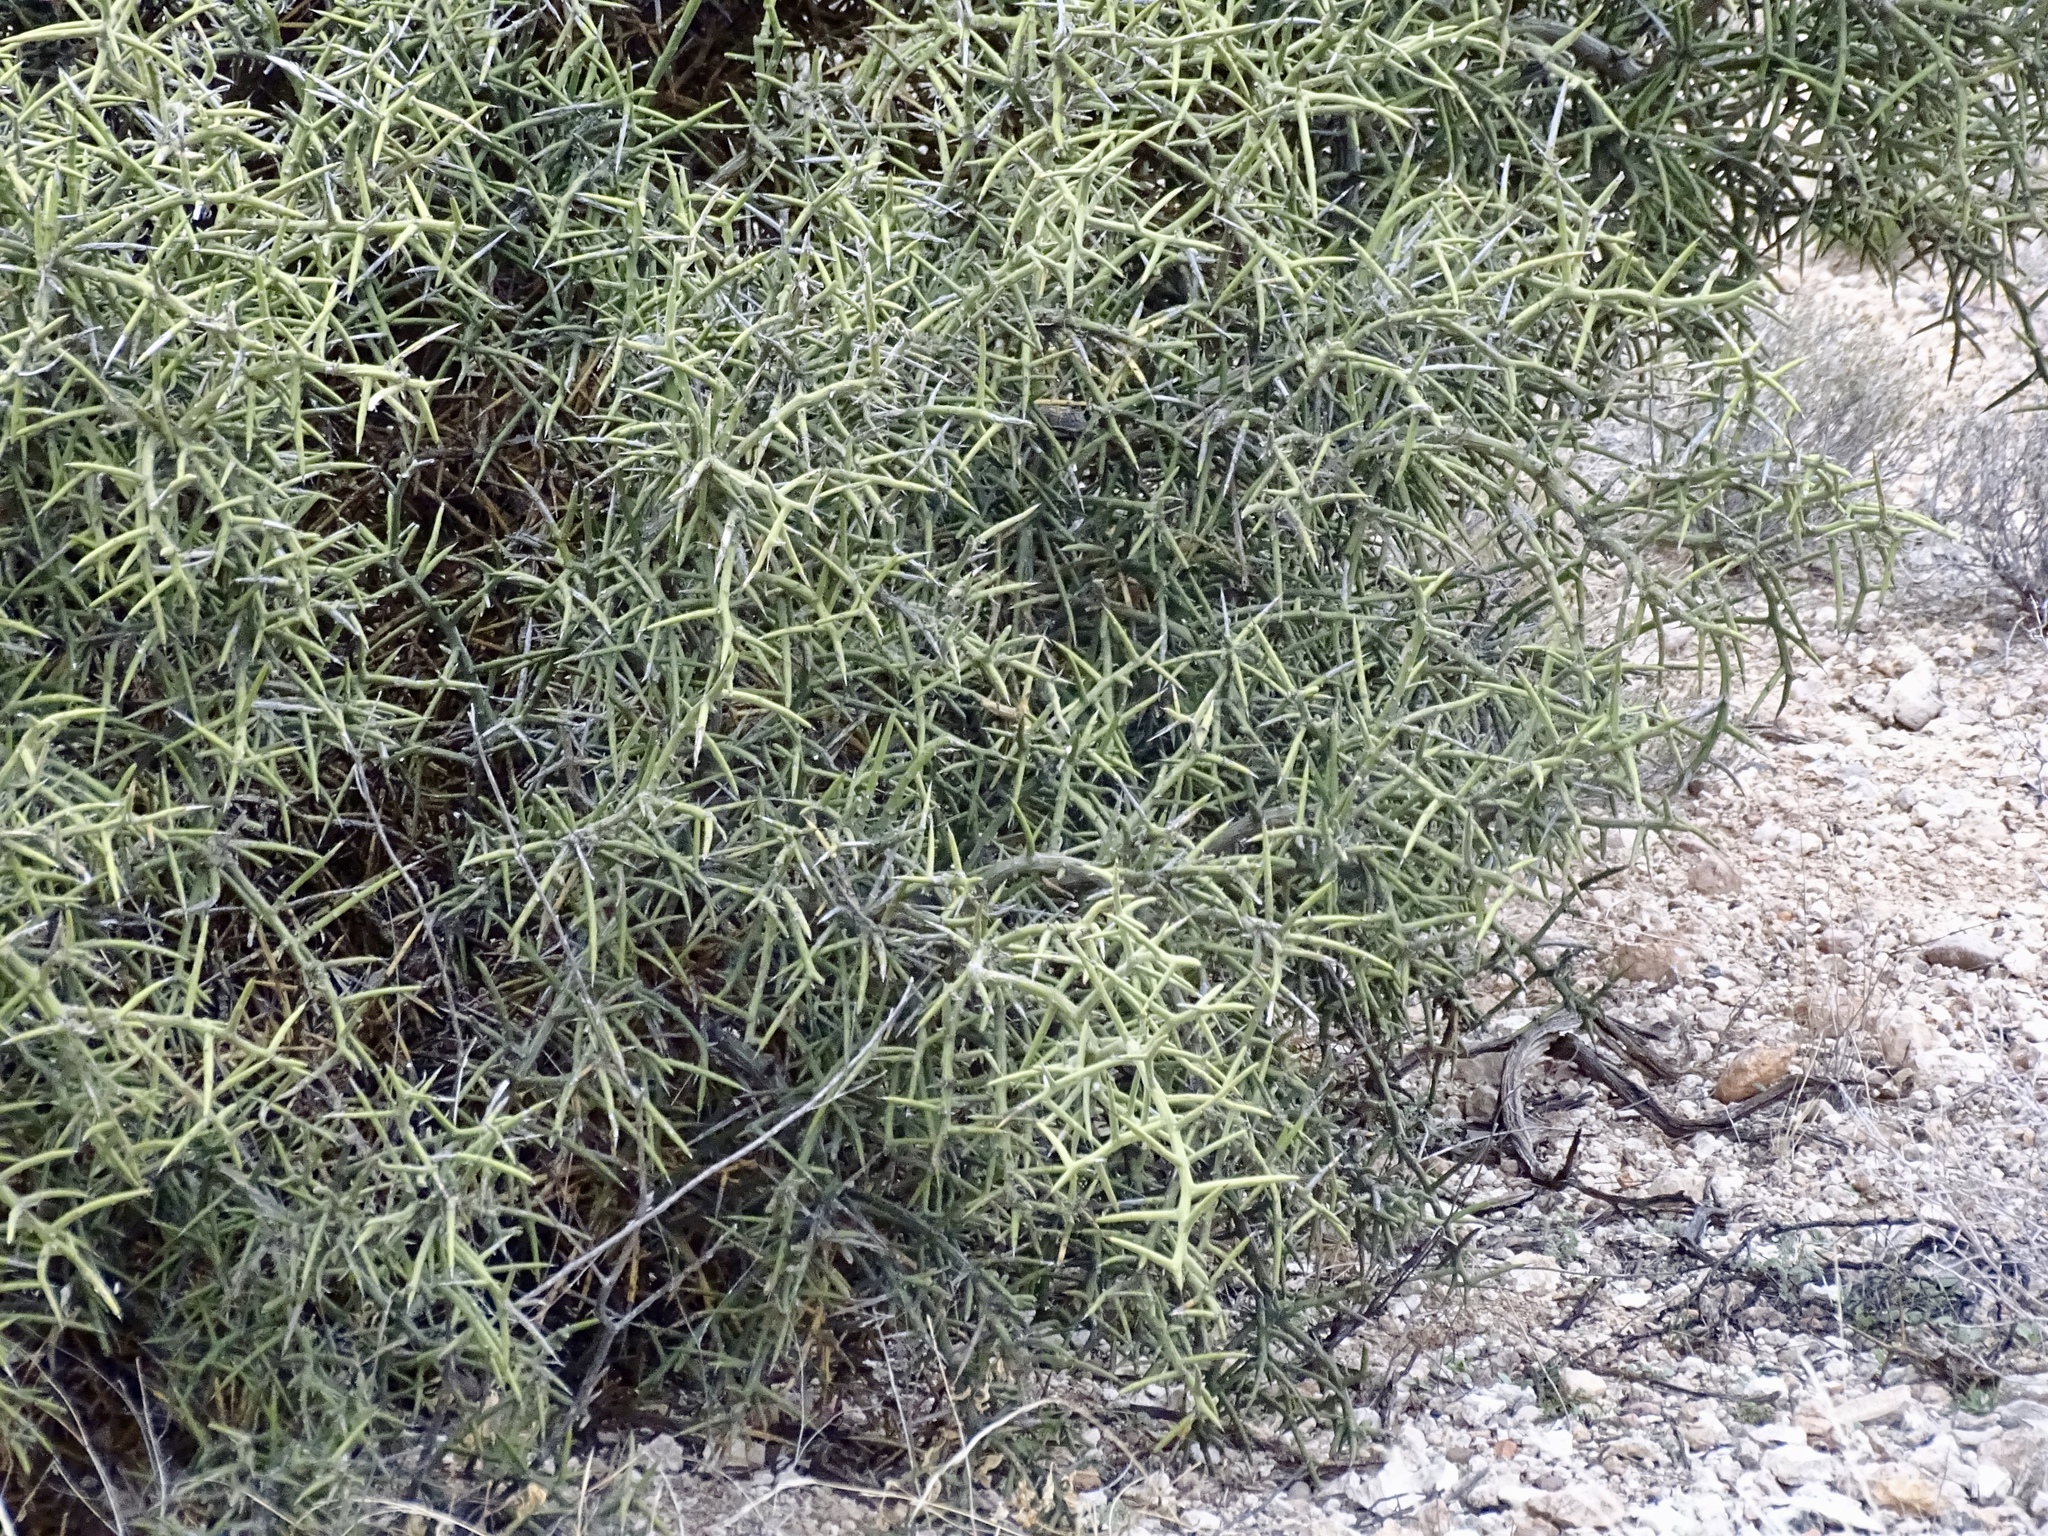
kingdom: Plantae
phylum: Tracheophyta
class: Magnoliopsida
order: Brassicales
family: Koeberliniaceae
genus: Koeberlinia
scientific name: Koeberlinia spinosa
